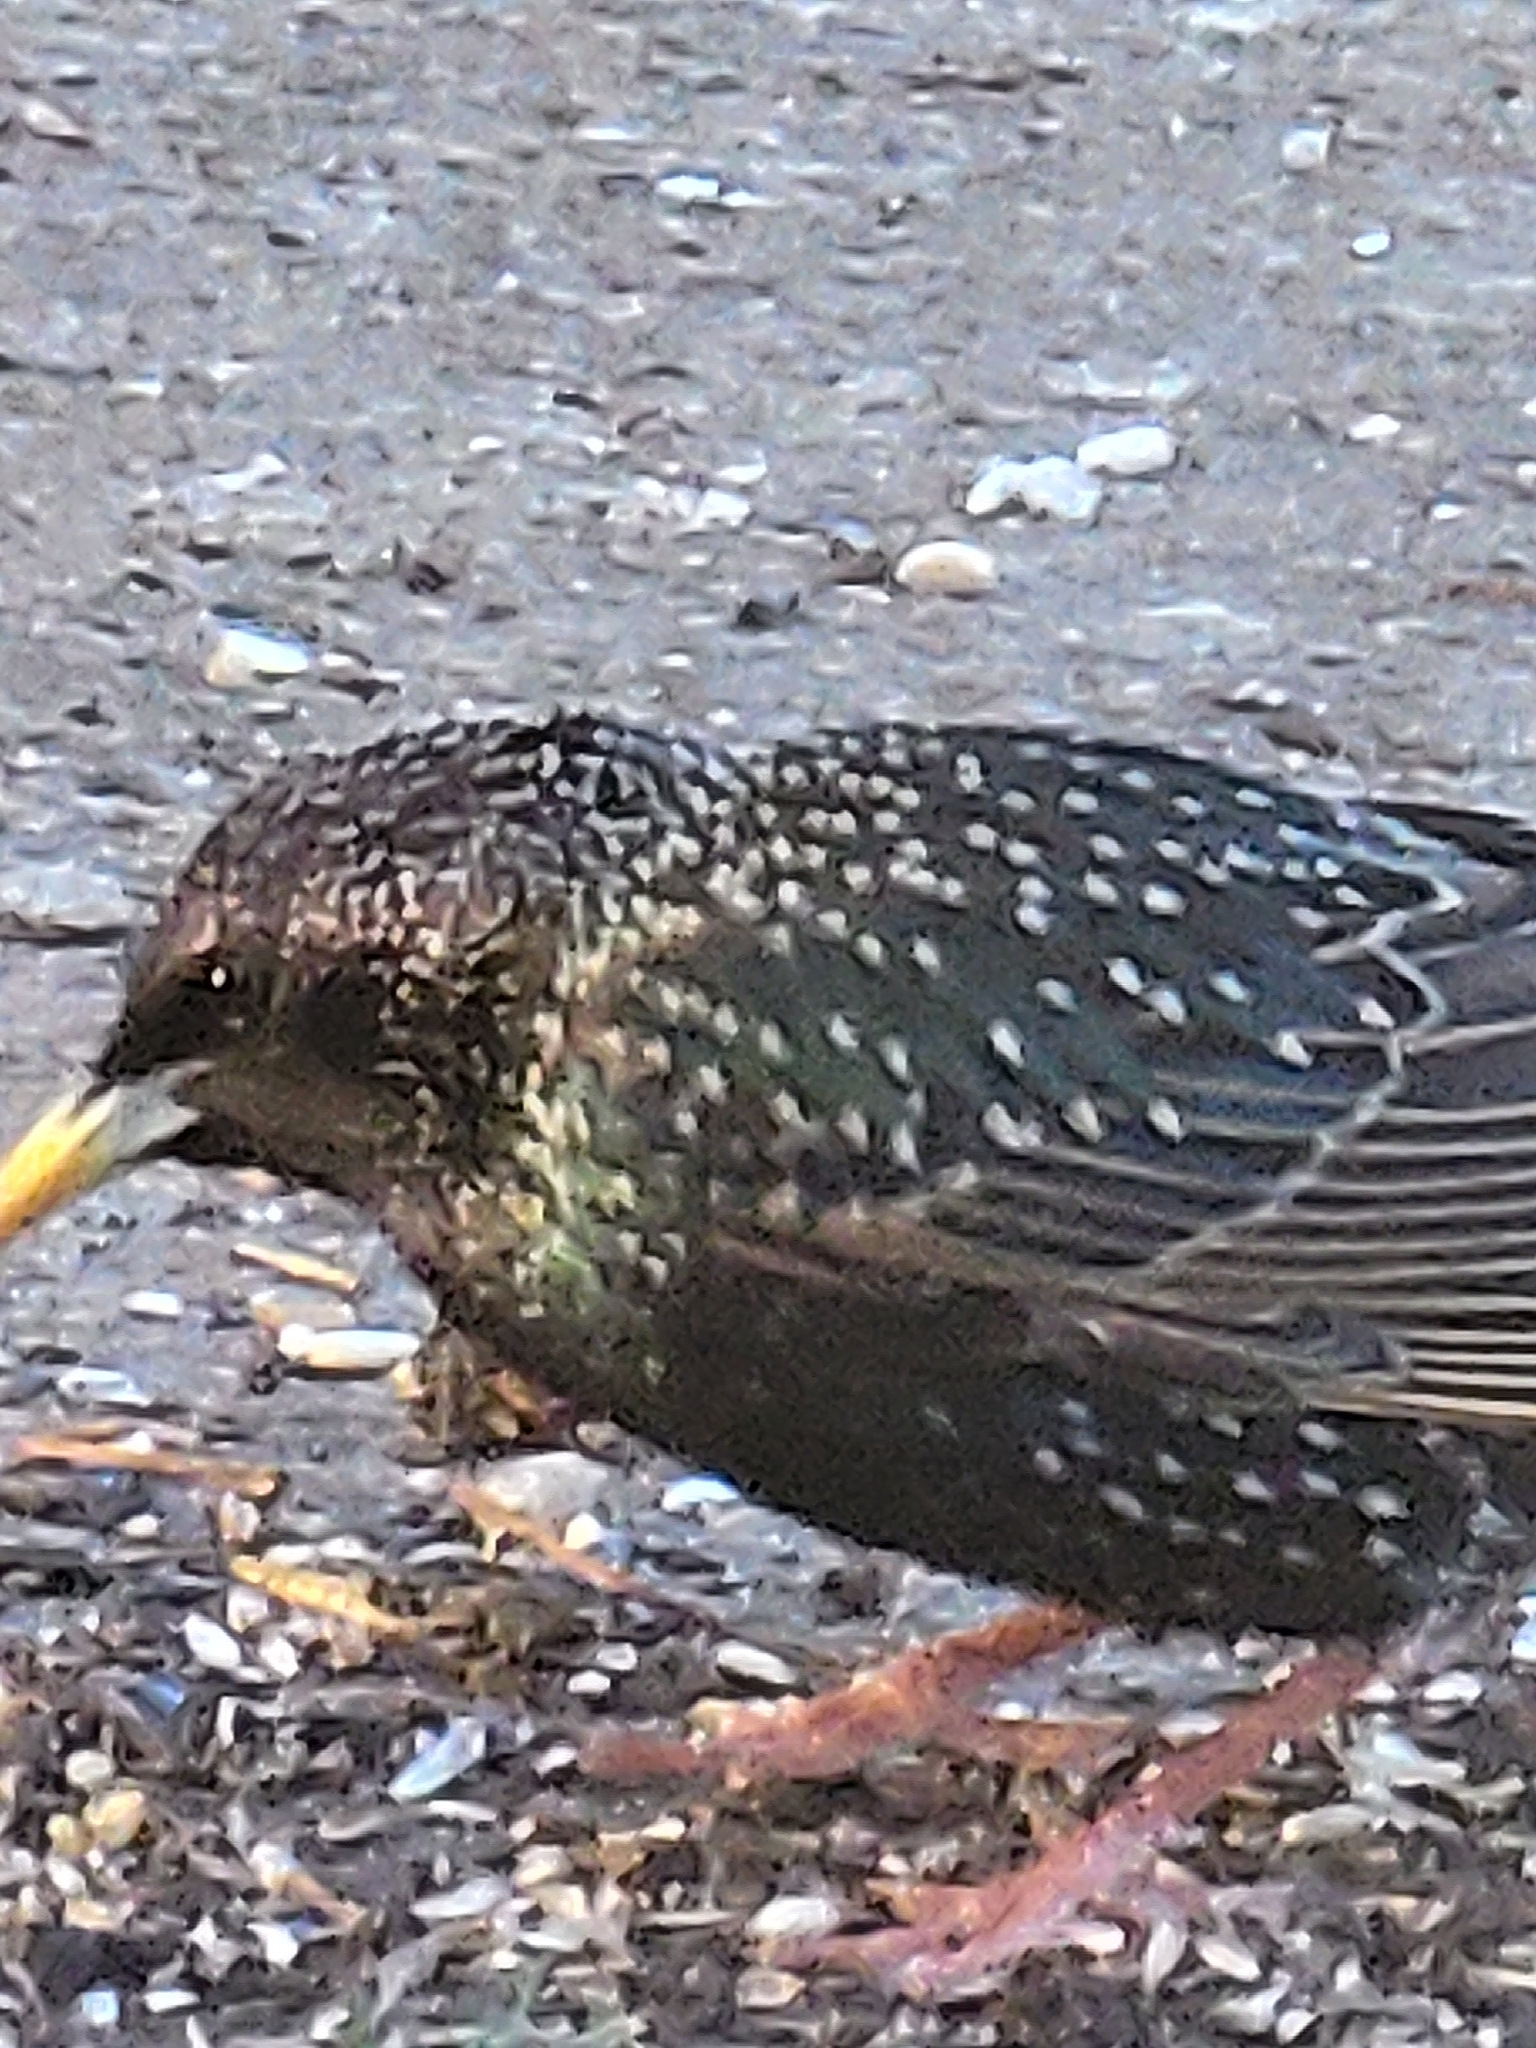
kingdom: Animalia
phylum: Chordata
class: Aves
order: Passeriformes
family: Sturnidae
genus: Sturnus
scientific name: Sturnus vulgaris
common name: Common starling
